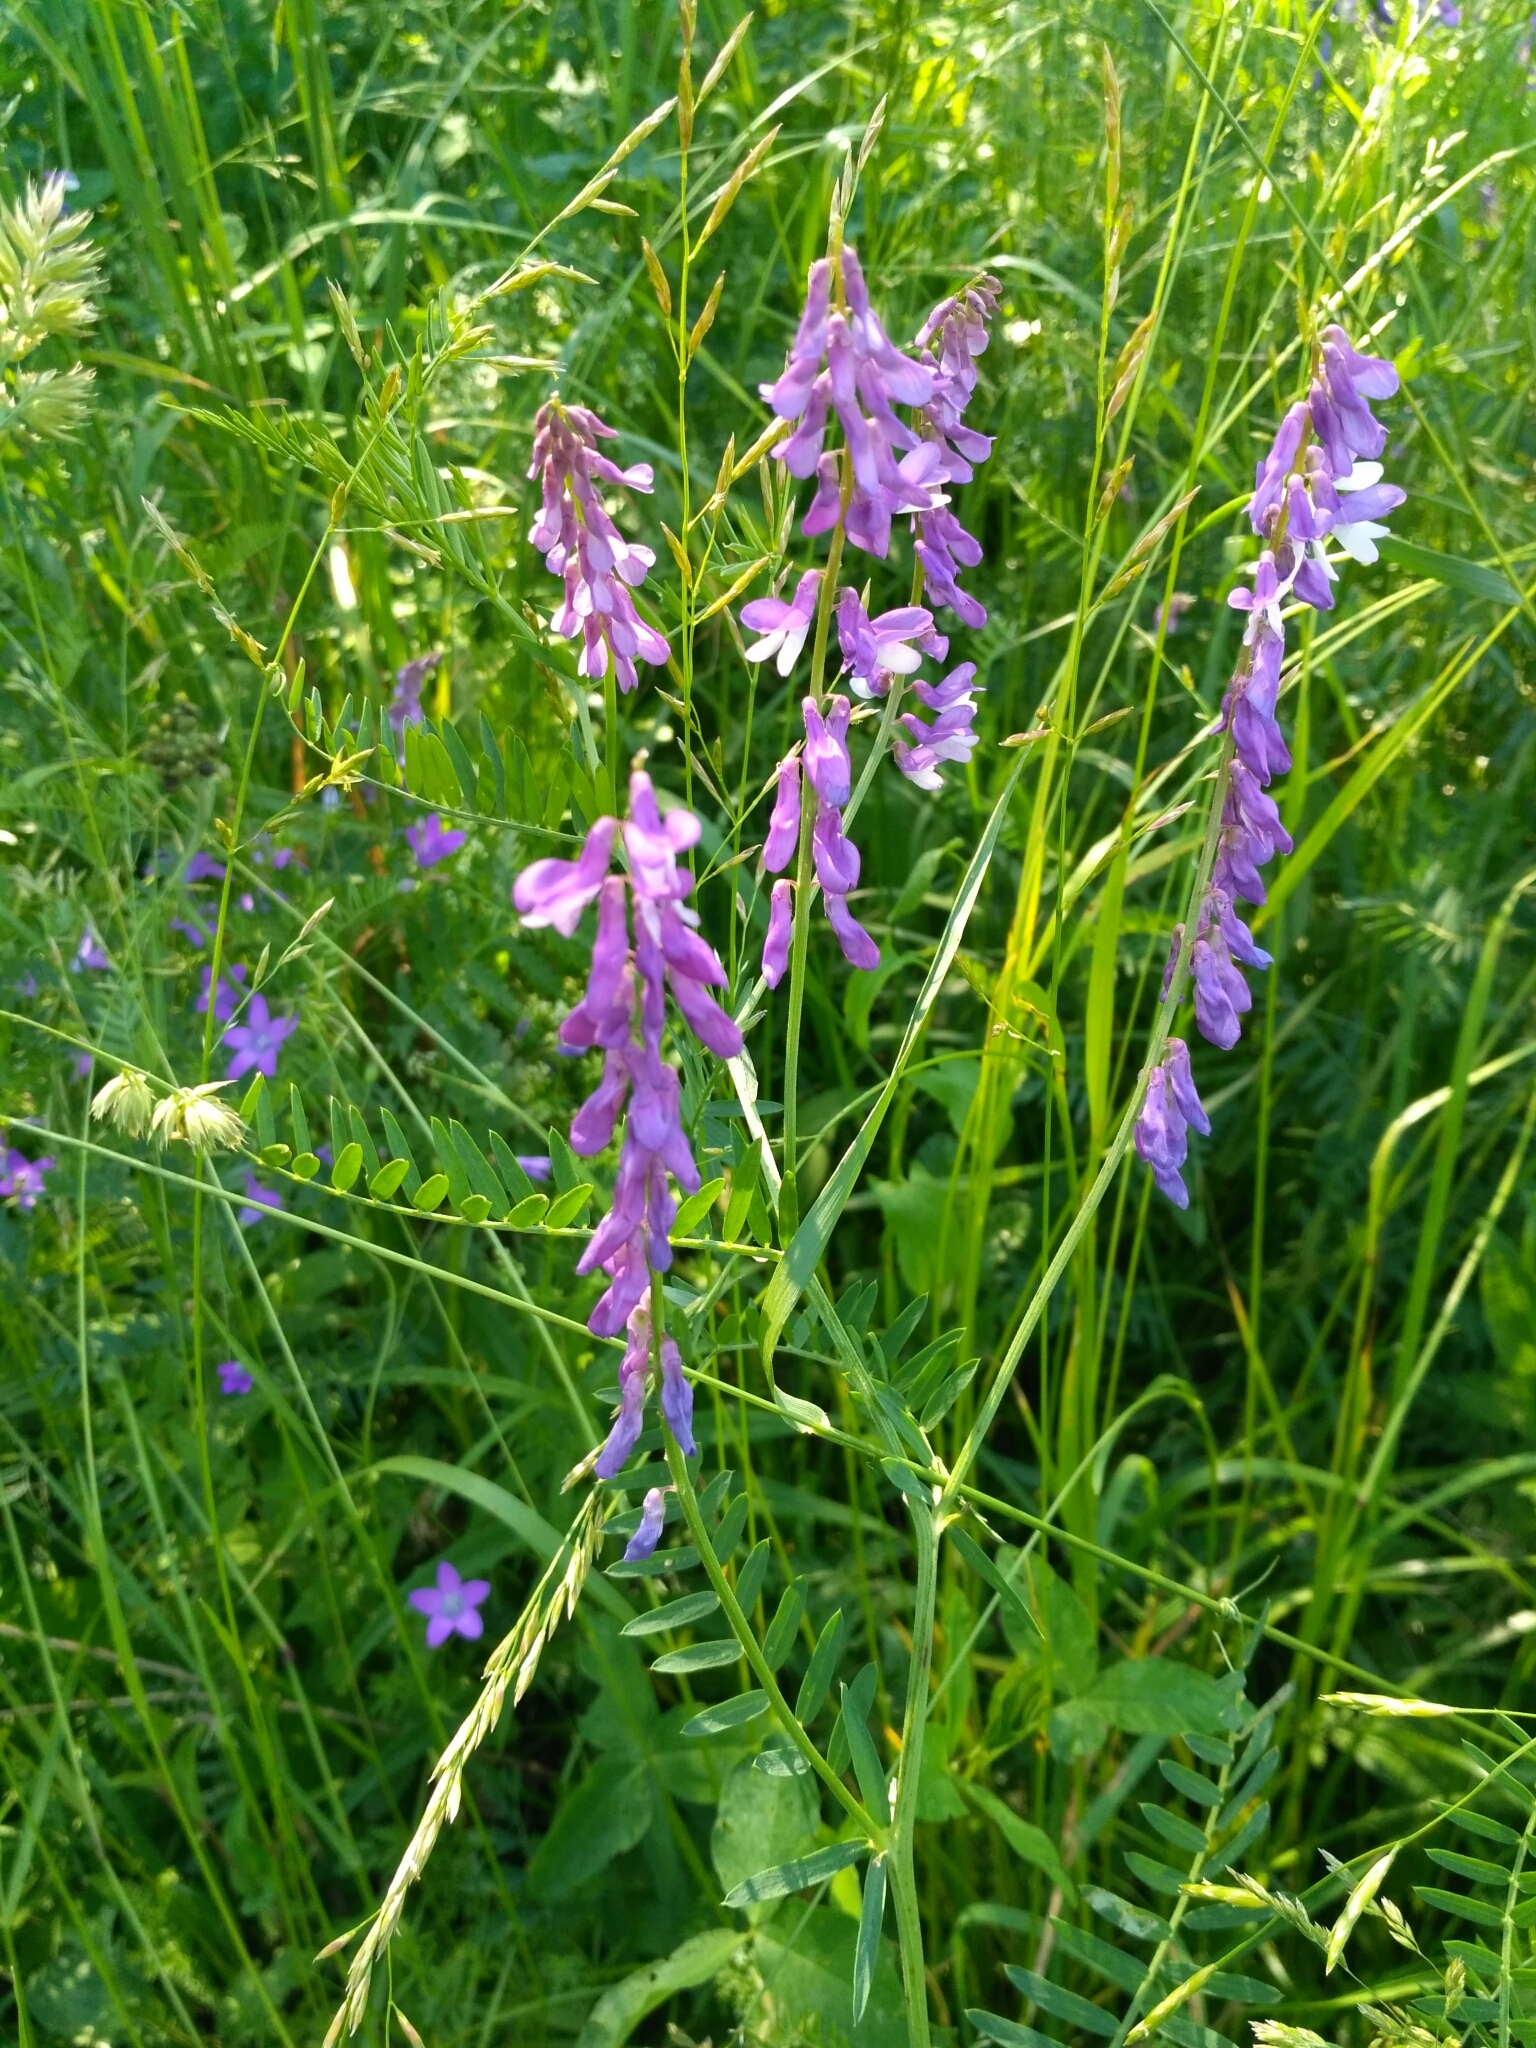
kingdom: Plantae
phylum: Tracheophyta
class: Magnoliopsida
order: Fabales
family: Fabaceae
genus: Vicia
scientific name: Vicia tenuifolia
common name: Fine-leaved vetch
